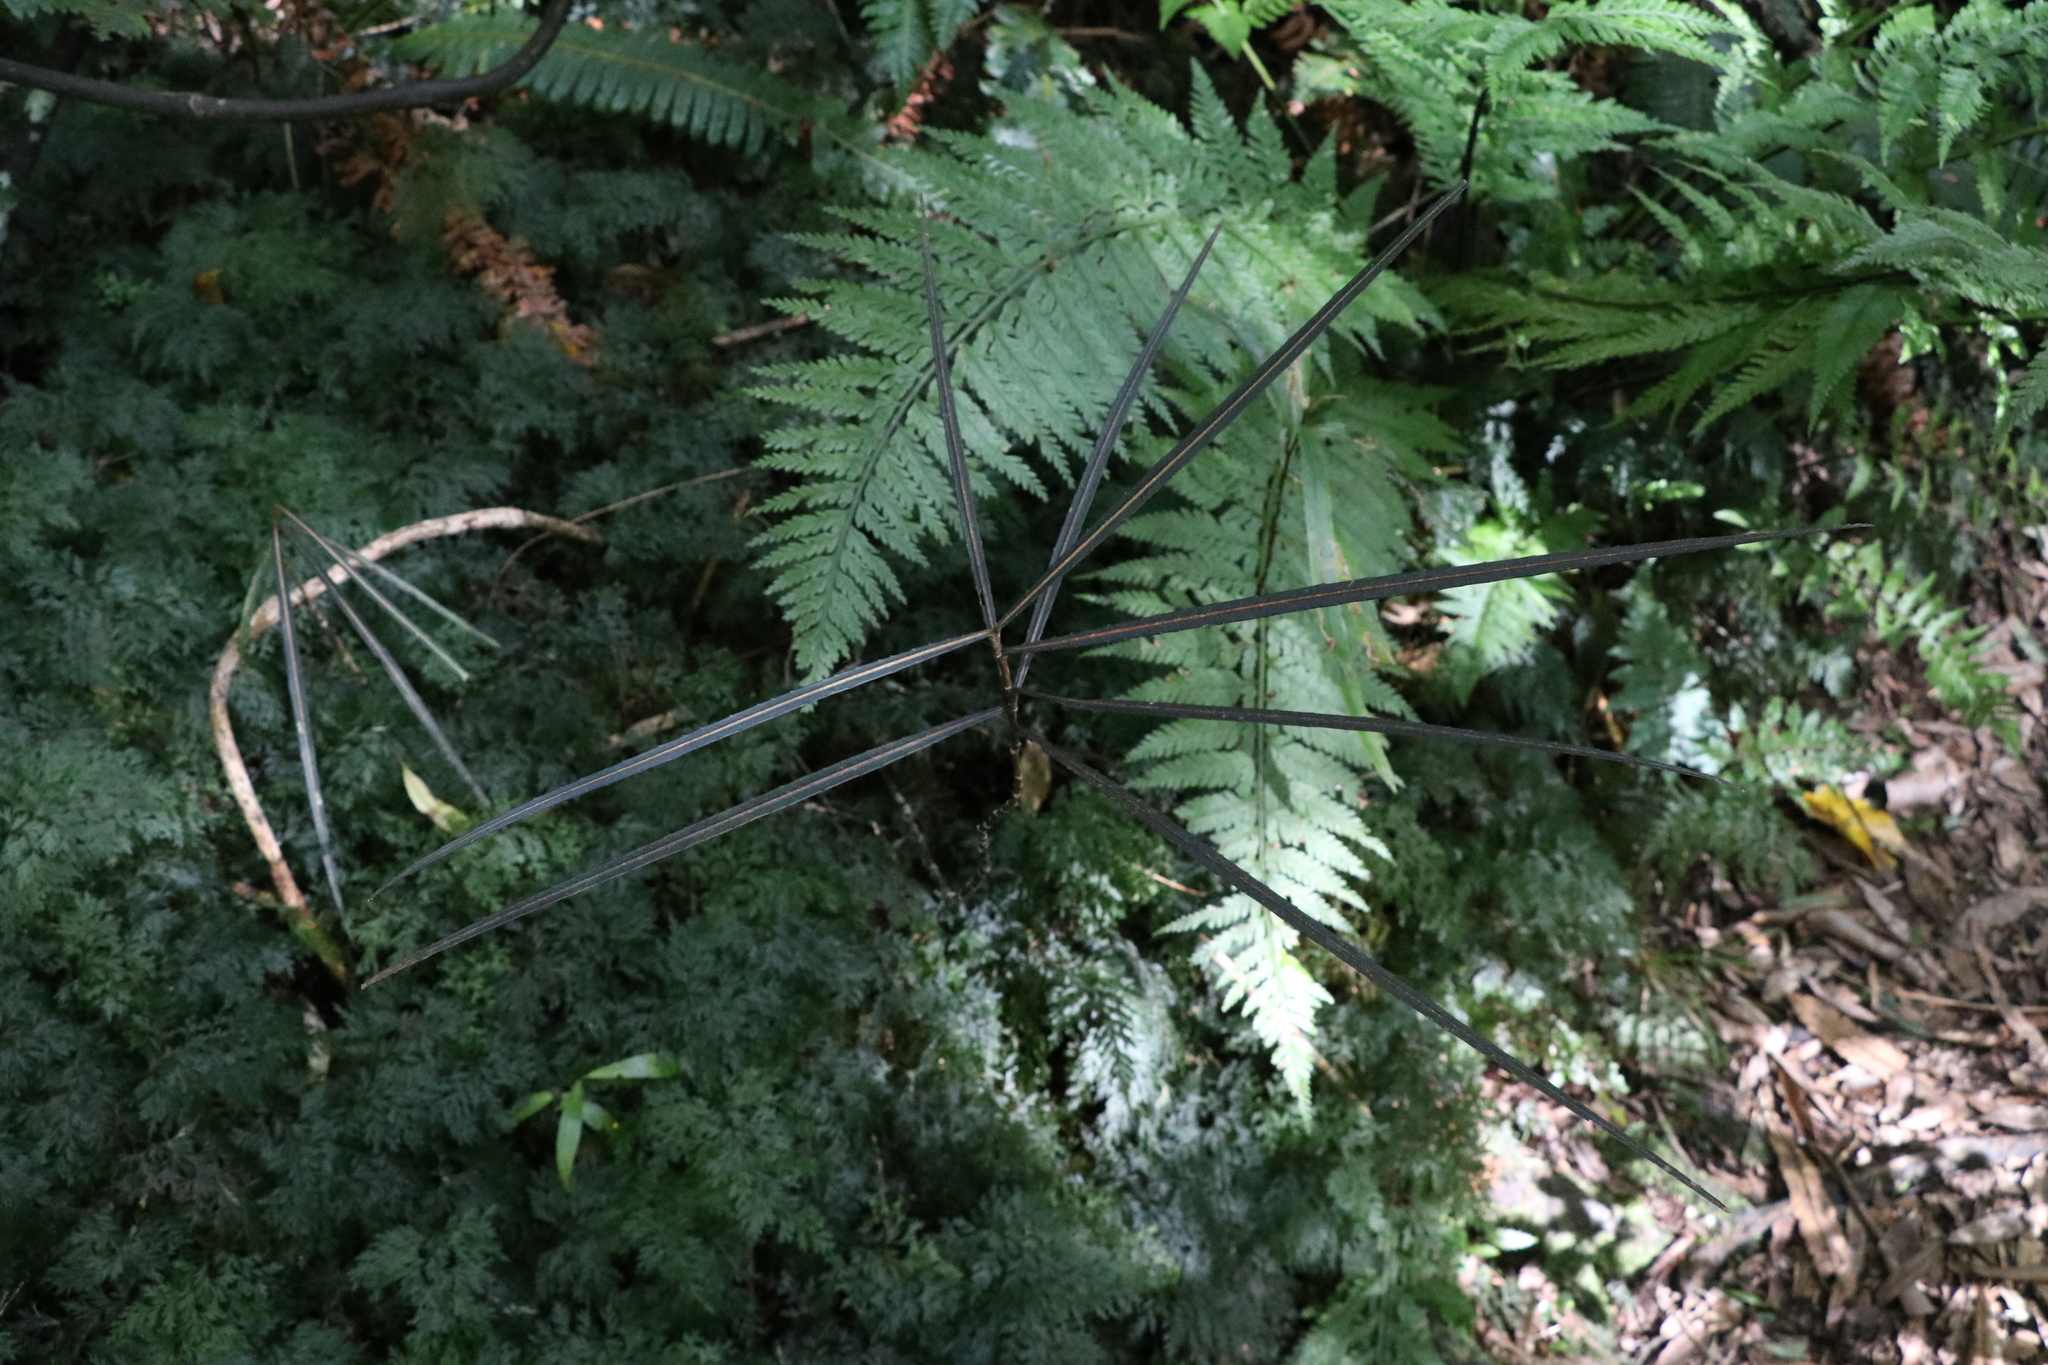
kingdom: Plantae
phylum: Tracheophyta
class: Magnoliopsida
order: Apiales
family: Araliaceae
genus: Pseudopanax
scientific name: Pseudopanax crassifolius
